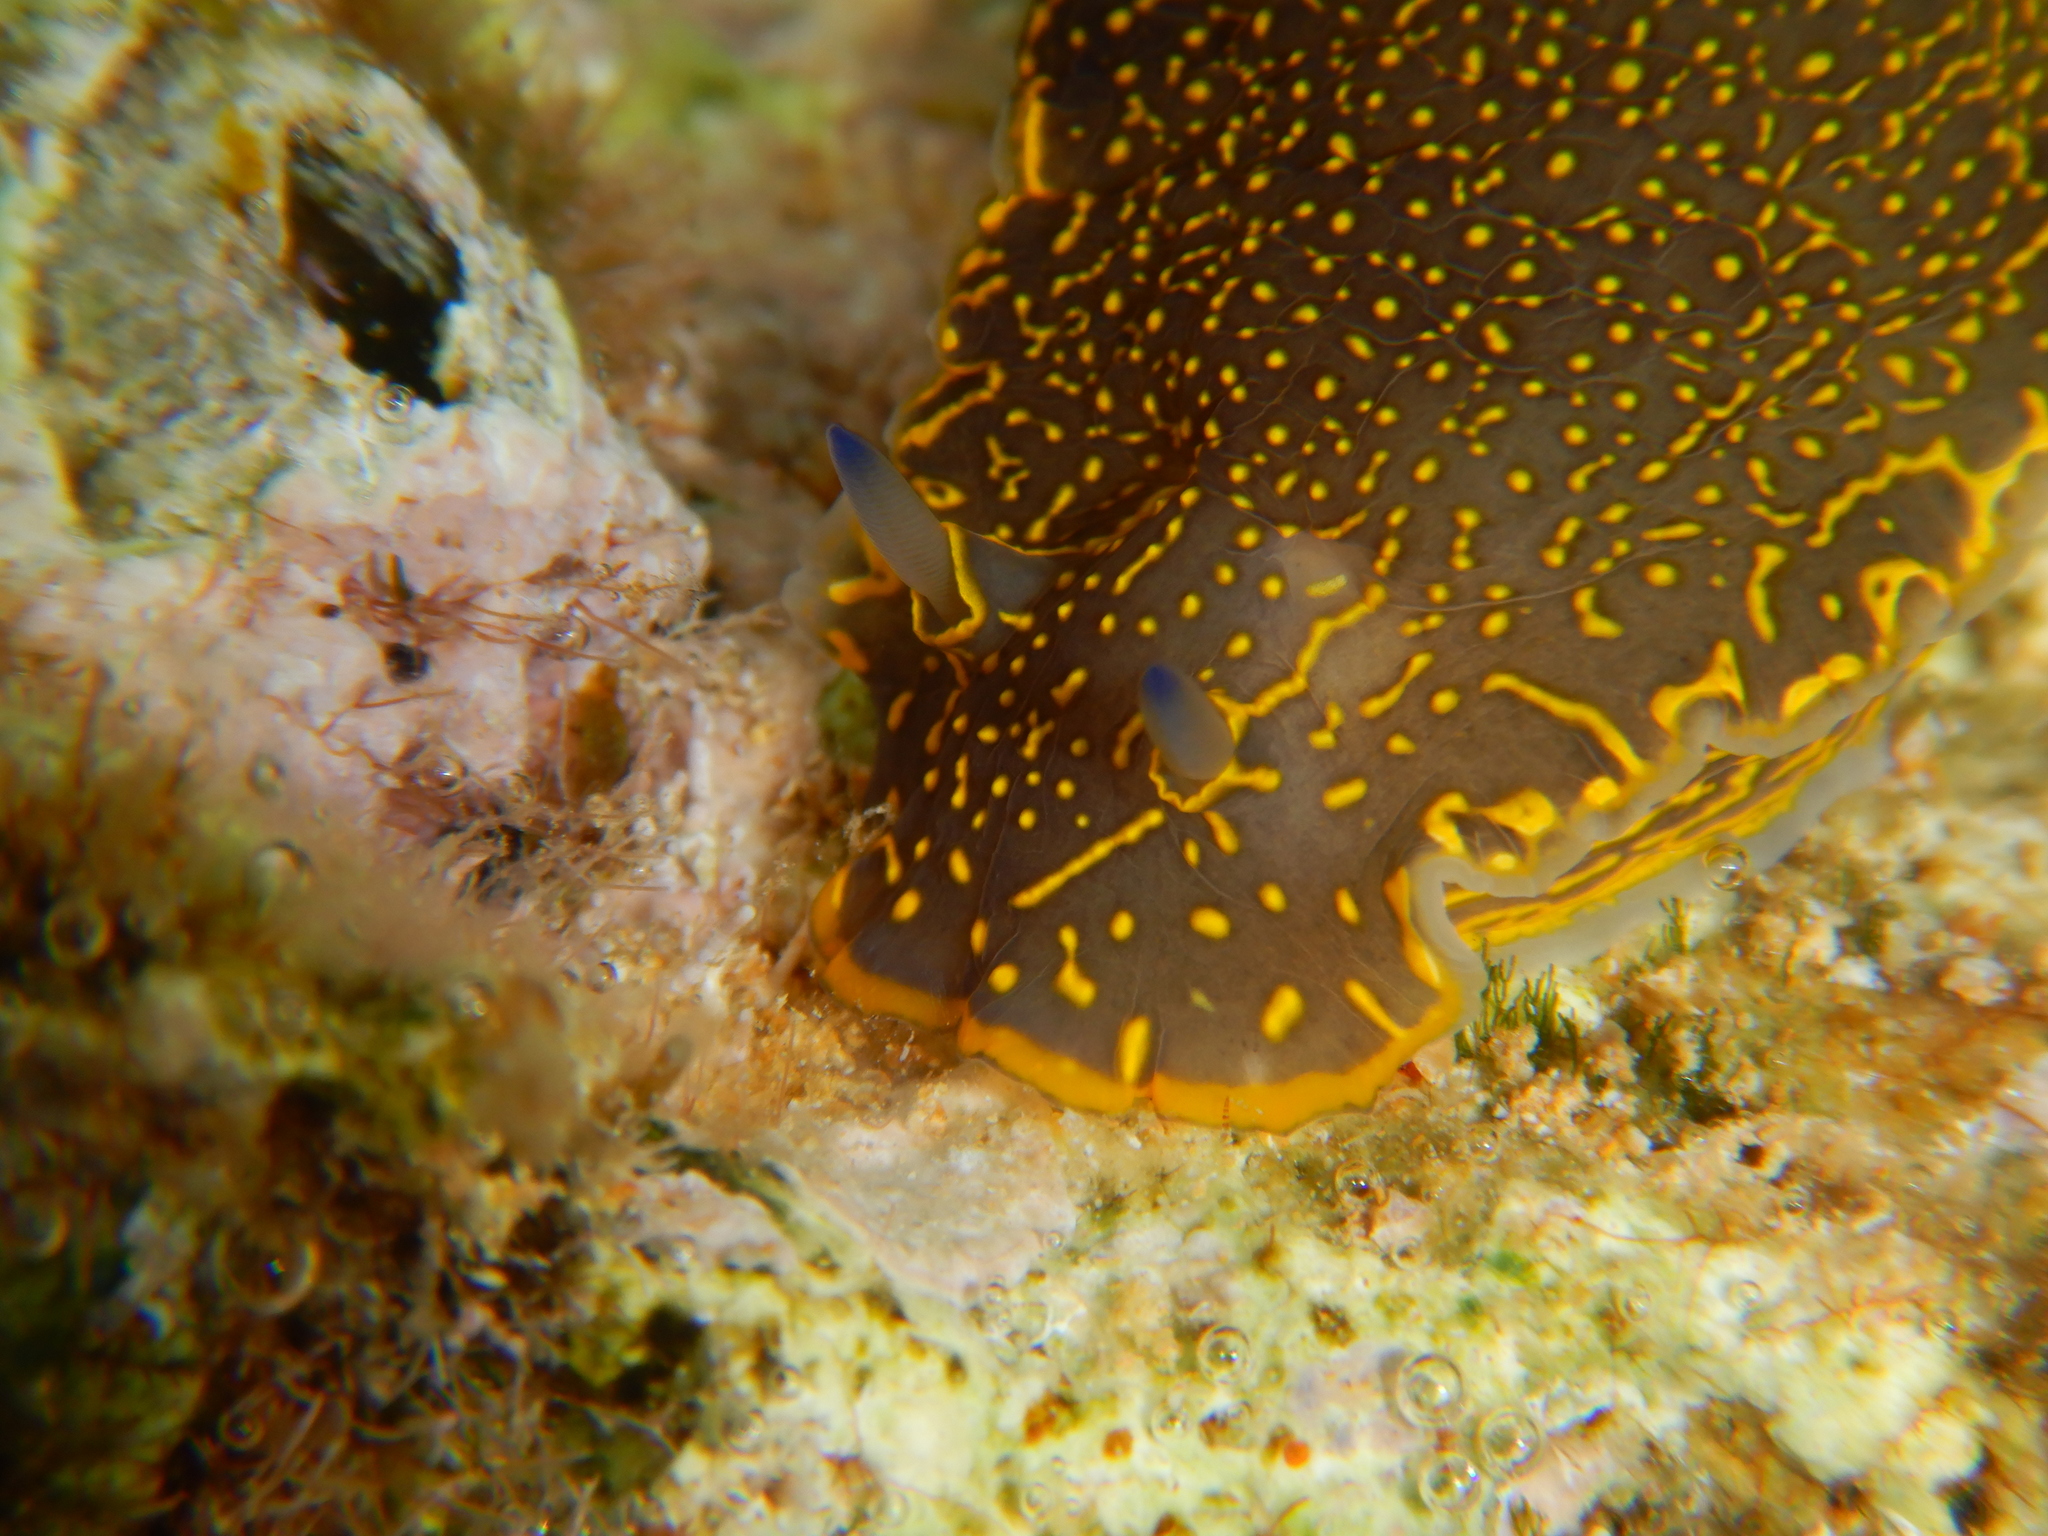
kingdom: Animalia
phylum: Mollusca
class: Gastropoda
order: Nudibranchia
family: Chromodorididae
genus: Felimare
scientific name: Felimare picta
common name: Giant doris
